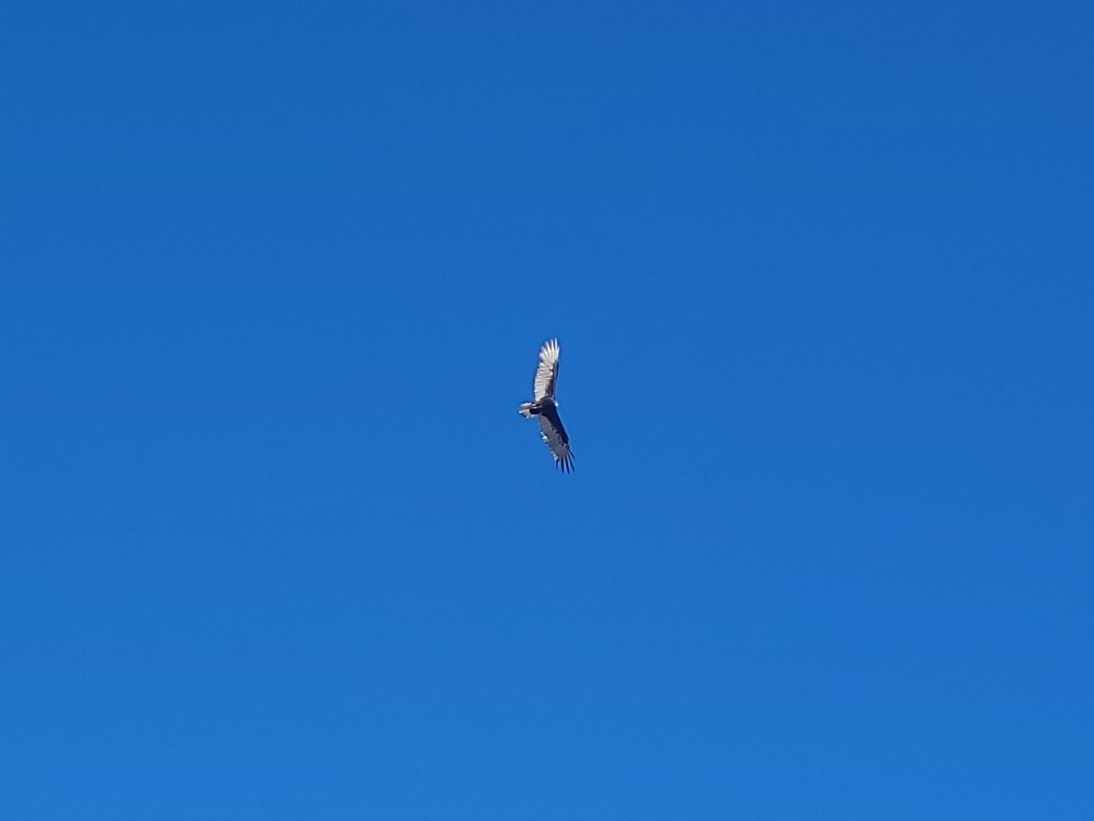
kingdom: Animalia
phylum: Chordata
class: Aves
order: Accipitriformes
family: Cathartidae
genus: Cathartes
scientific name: Cathartes aura
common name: Turkey vulture
